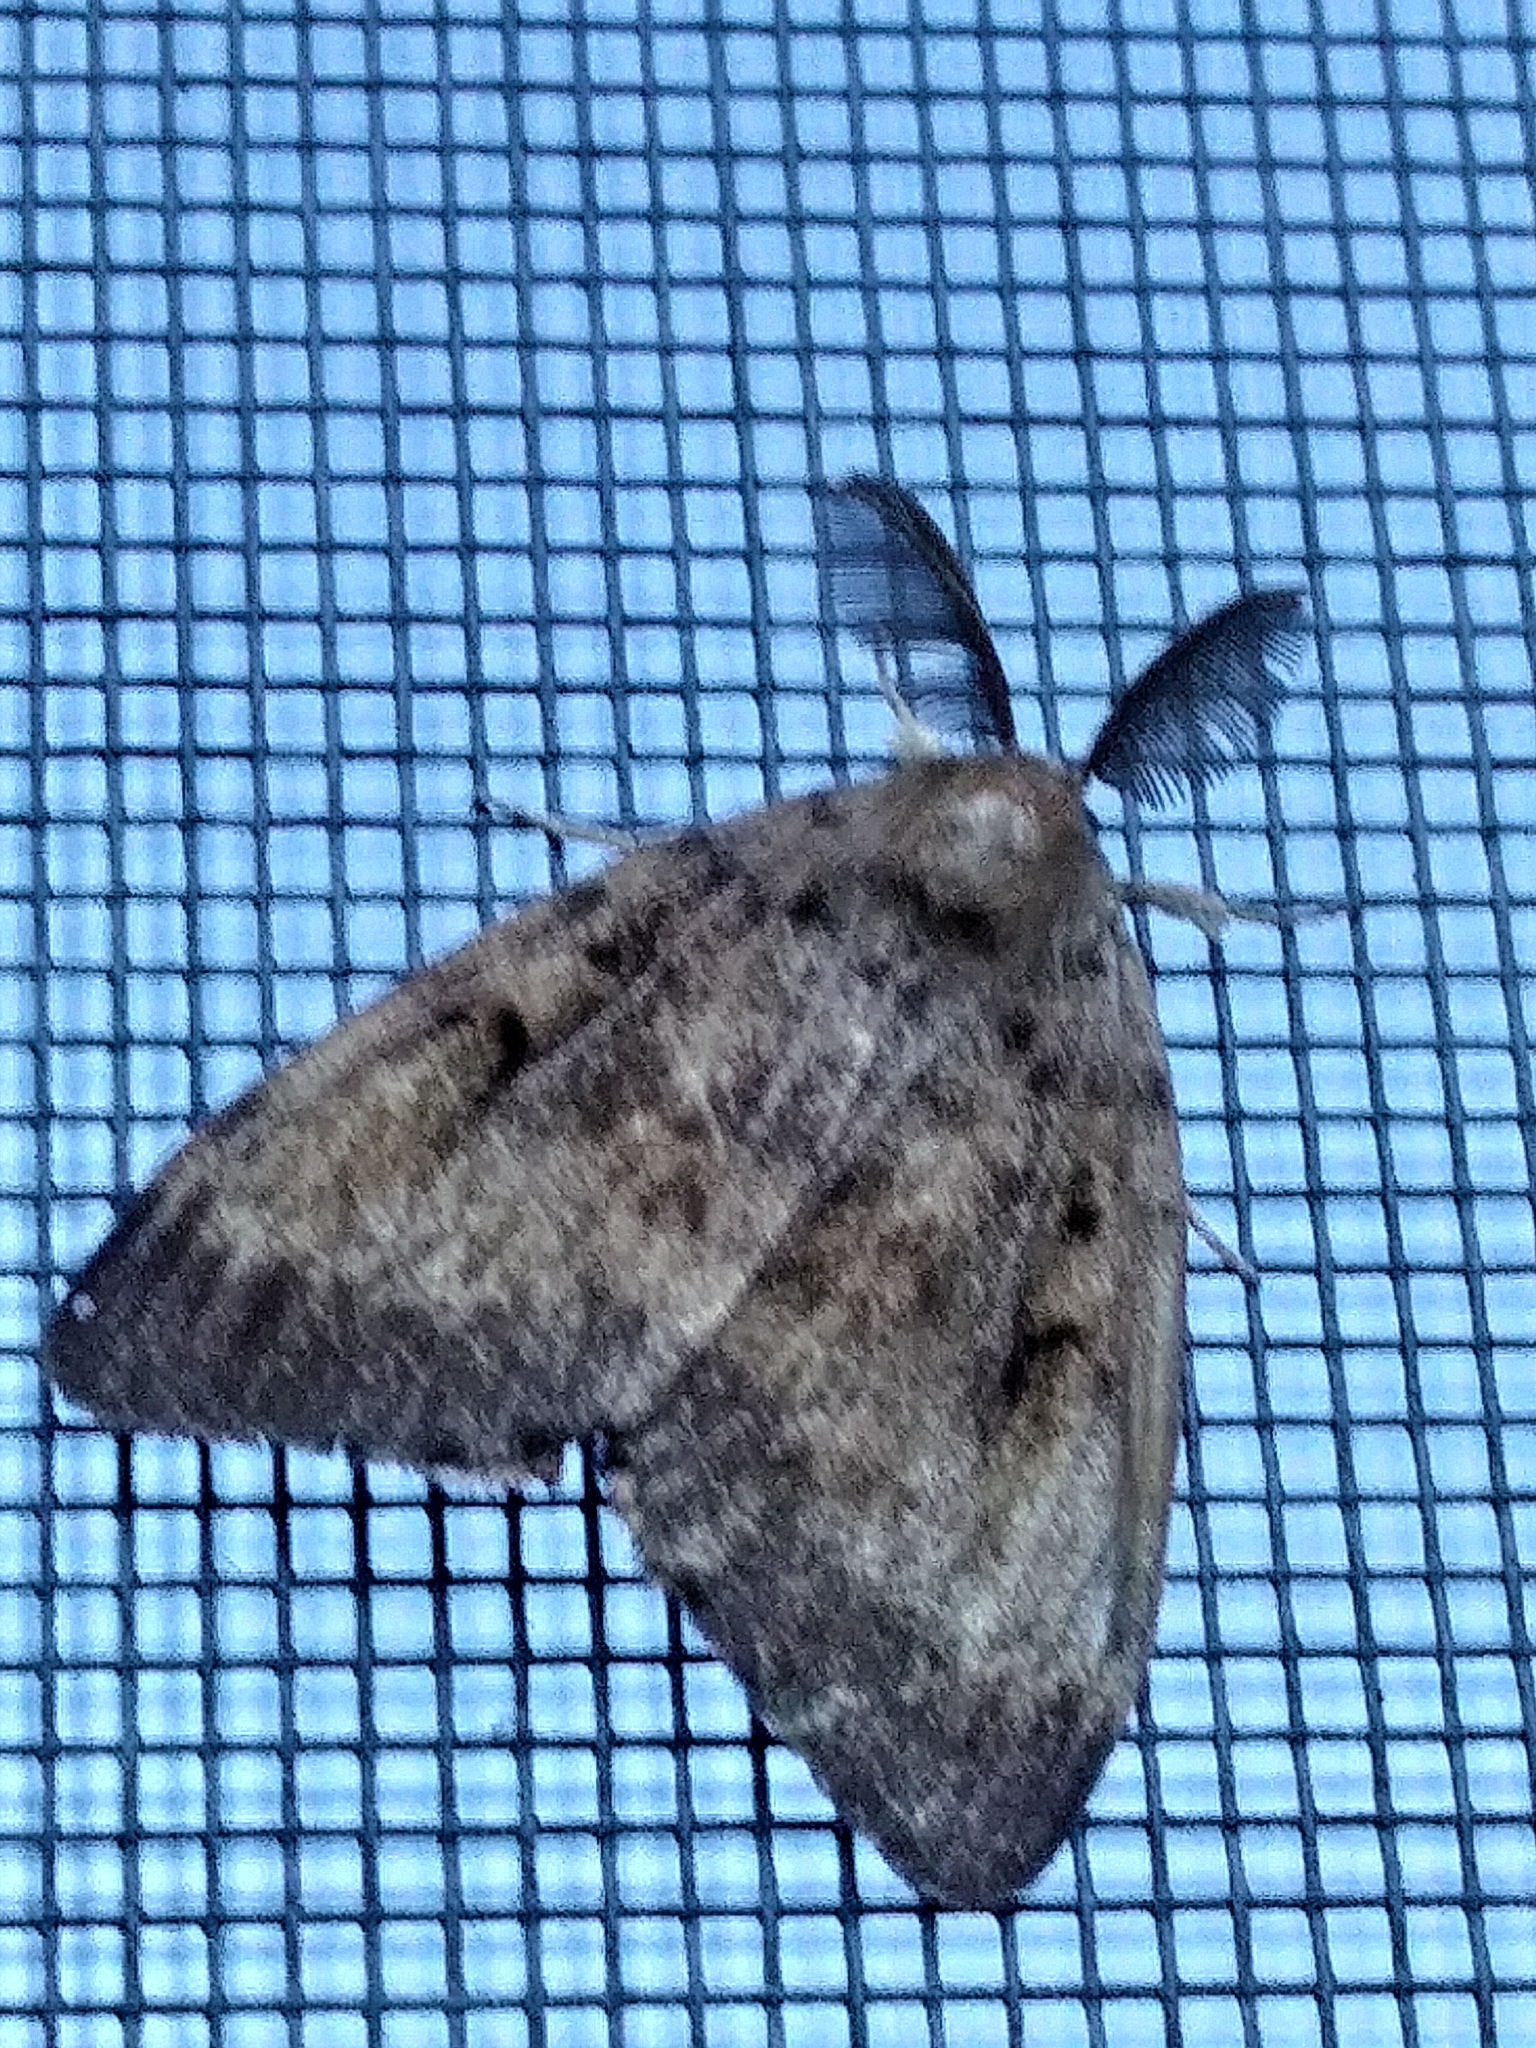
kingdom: Animalia
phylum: Arthropoda
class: Insecta
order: Lepidoptera
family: Erebidae
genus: Lymantria
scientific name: Lymantria dispar
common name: Gypsy moth
